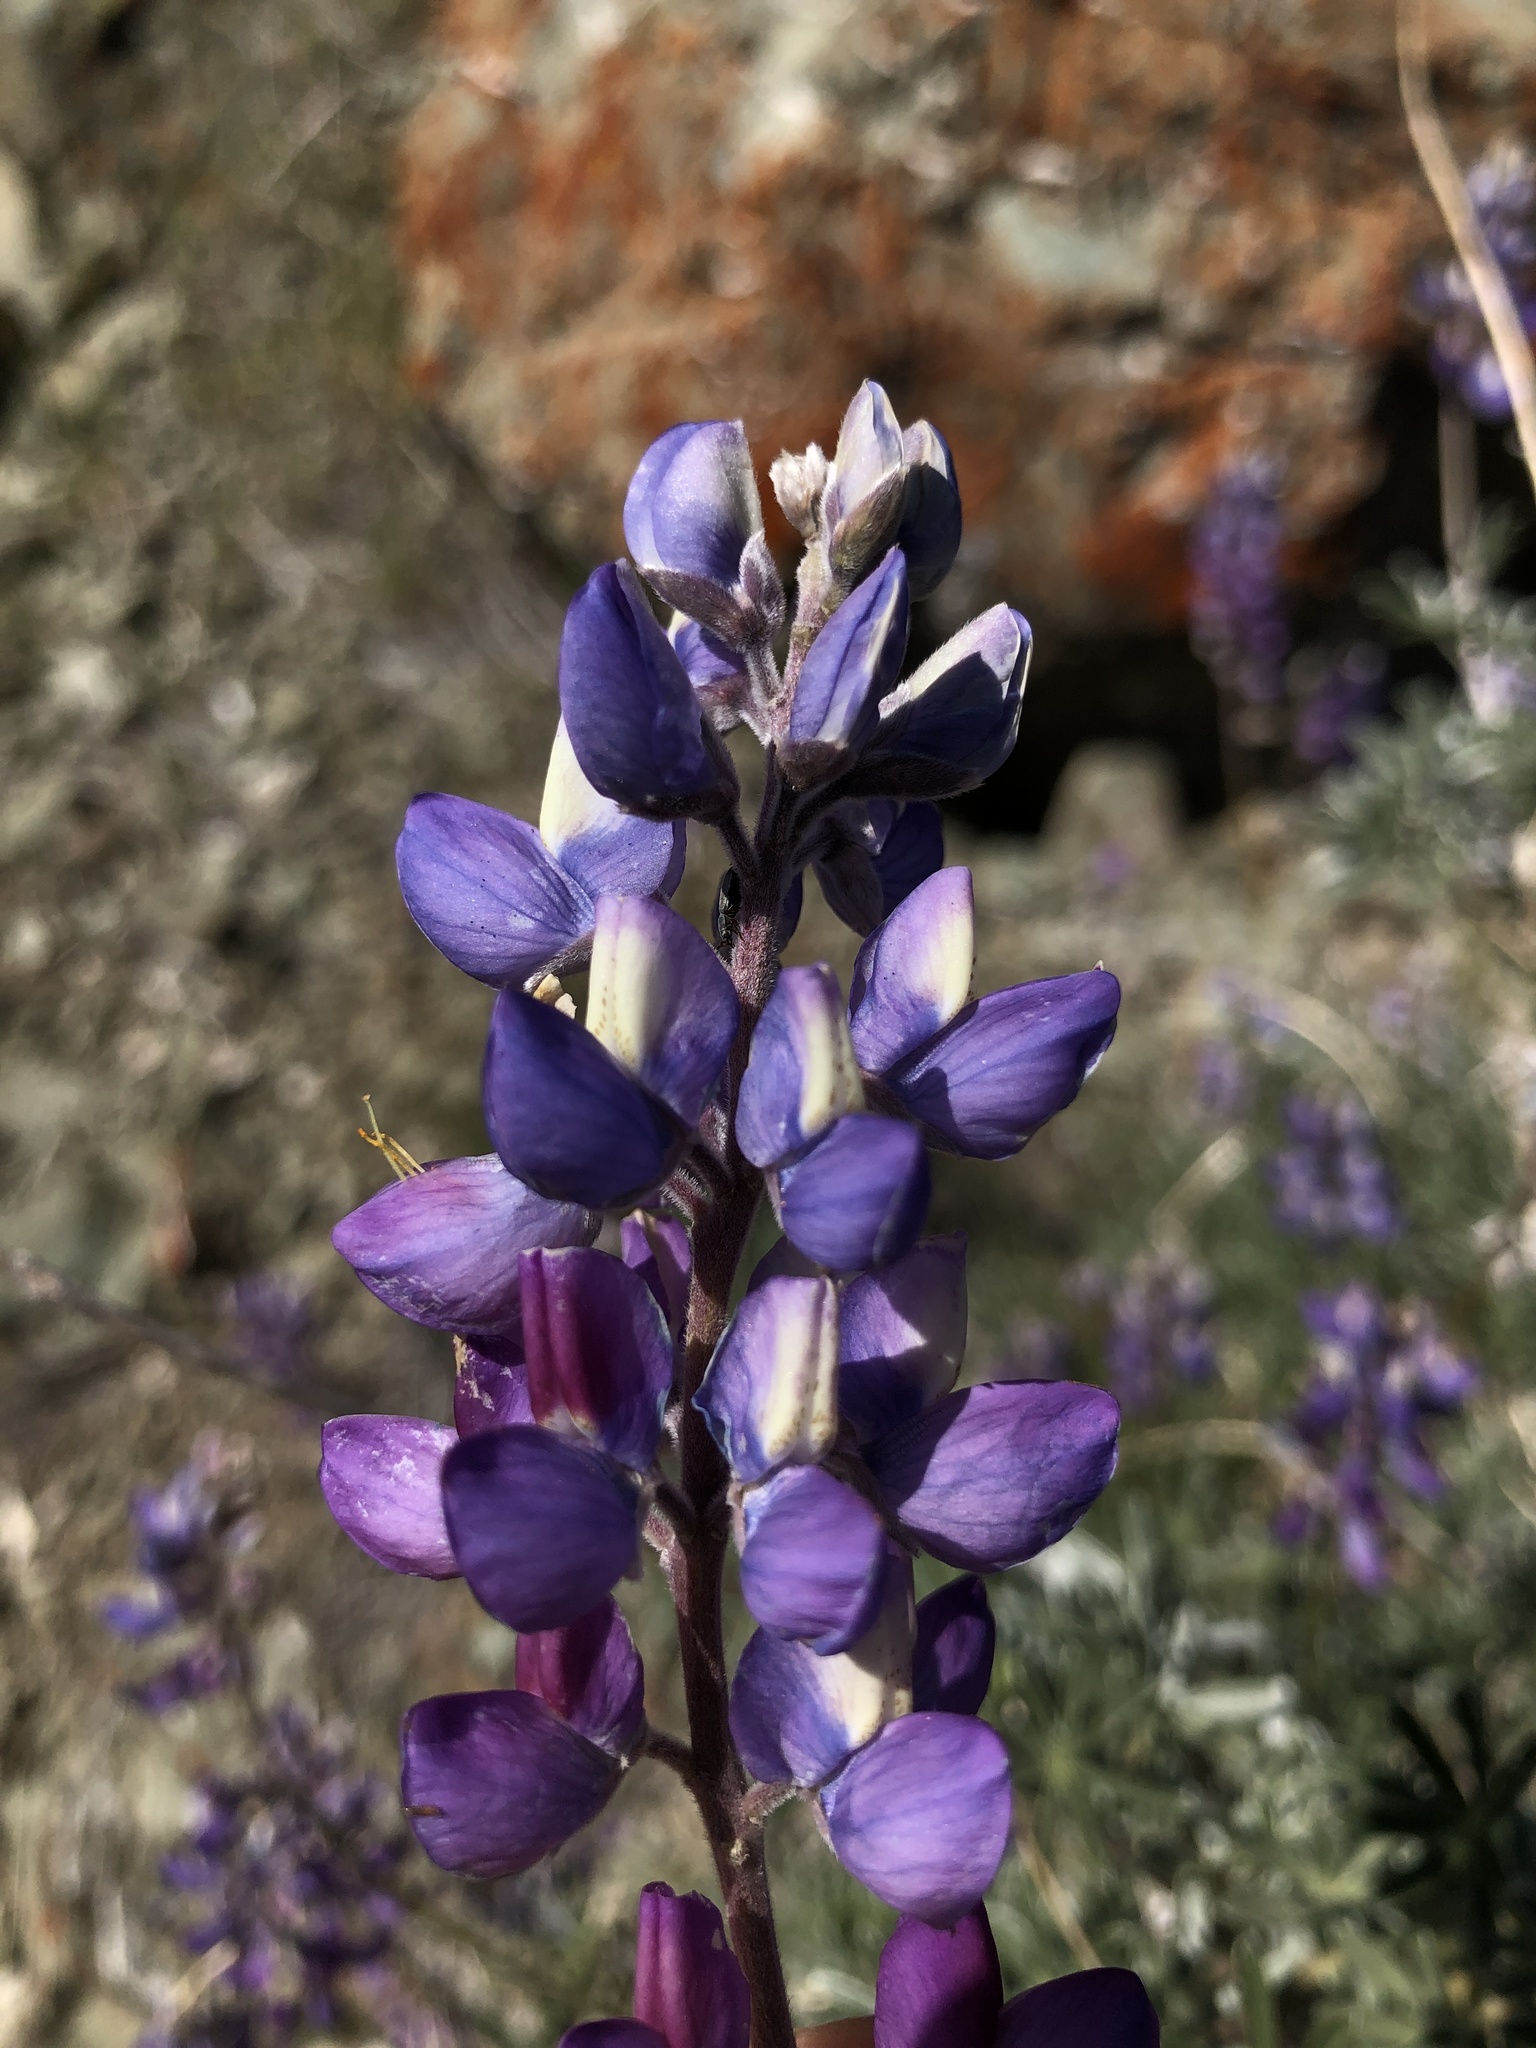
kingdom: Plantae
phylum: Tracheophyta
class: Magnoliopsida
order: Fabales
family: Fabaceae
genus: Lupinus
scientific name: Lupinus albifrons
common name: Foothill lupine
